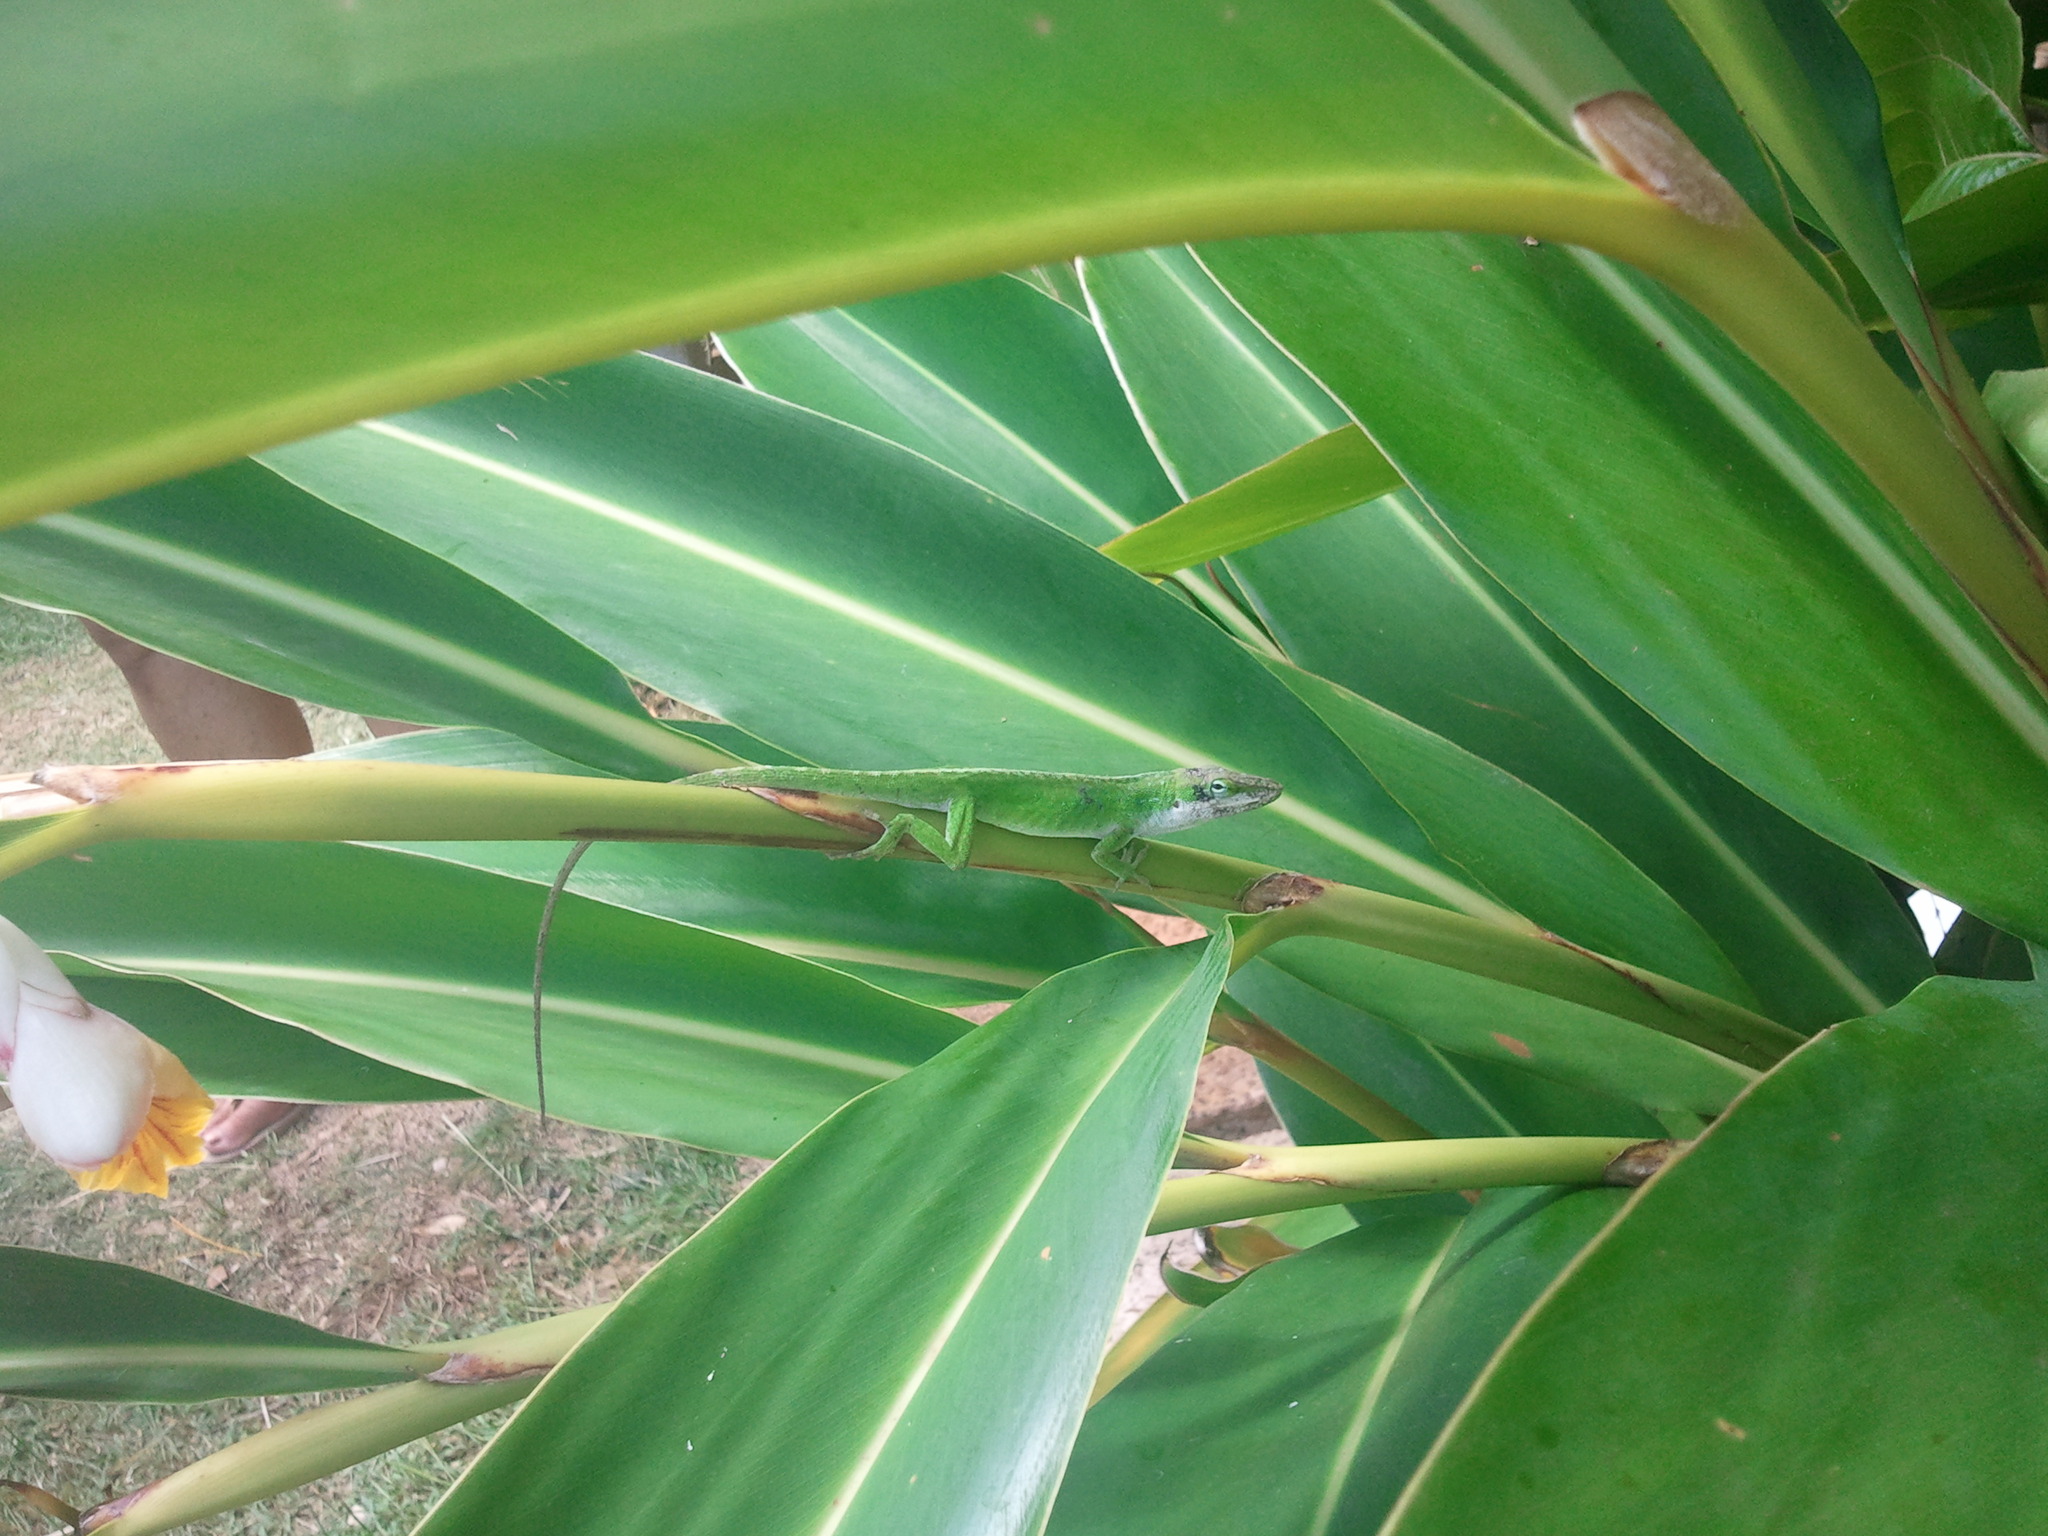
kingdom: Animalia
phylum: Chordata
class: Squamata
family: Dactyloidae
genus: Anolis
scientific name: Anolis carolinensis
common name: Green anole
